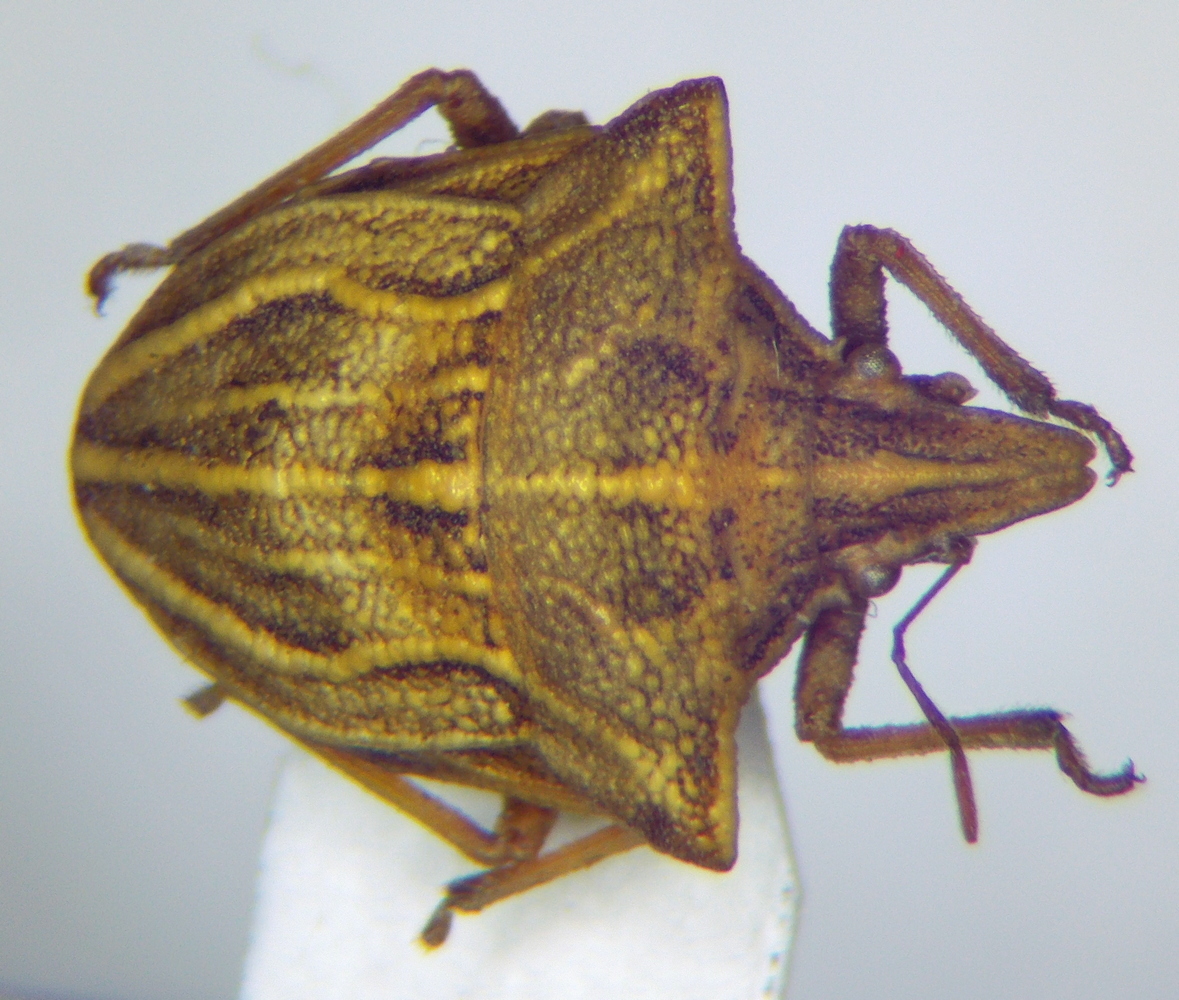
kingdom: Animalia
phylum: Arthropoda
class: Insecta
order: Hemiptera
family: Pentatomidae
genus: Ancyrosoma
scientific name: Ancyrosoma leucogrammes
